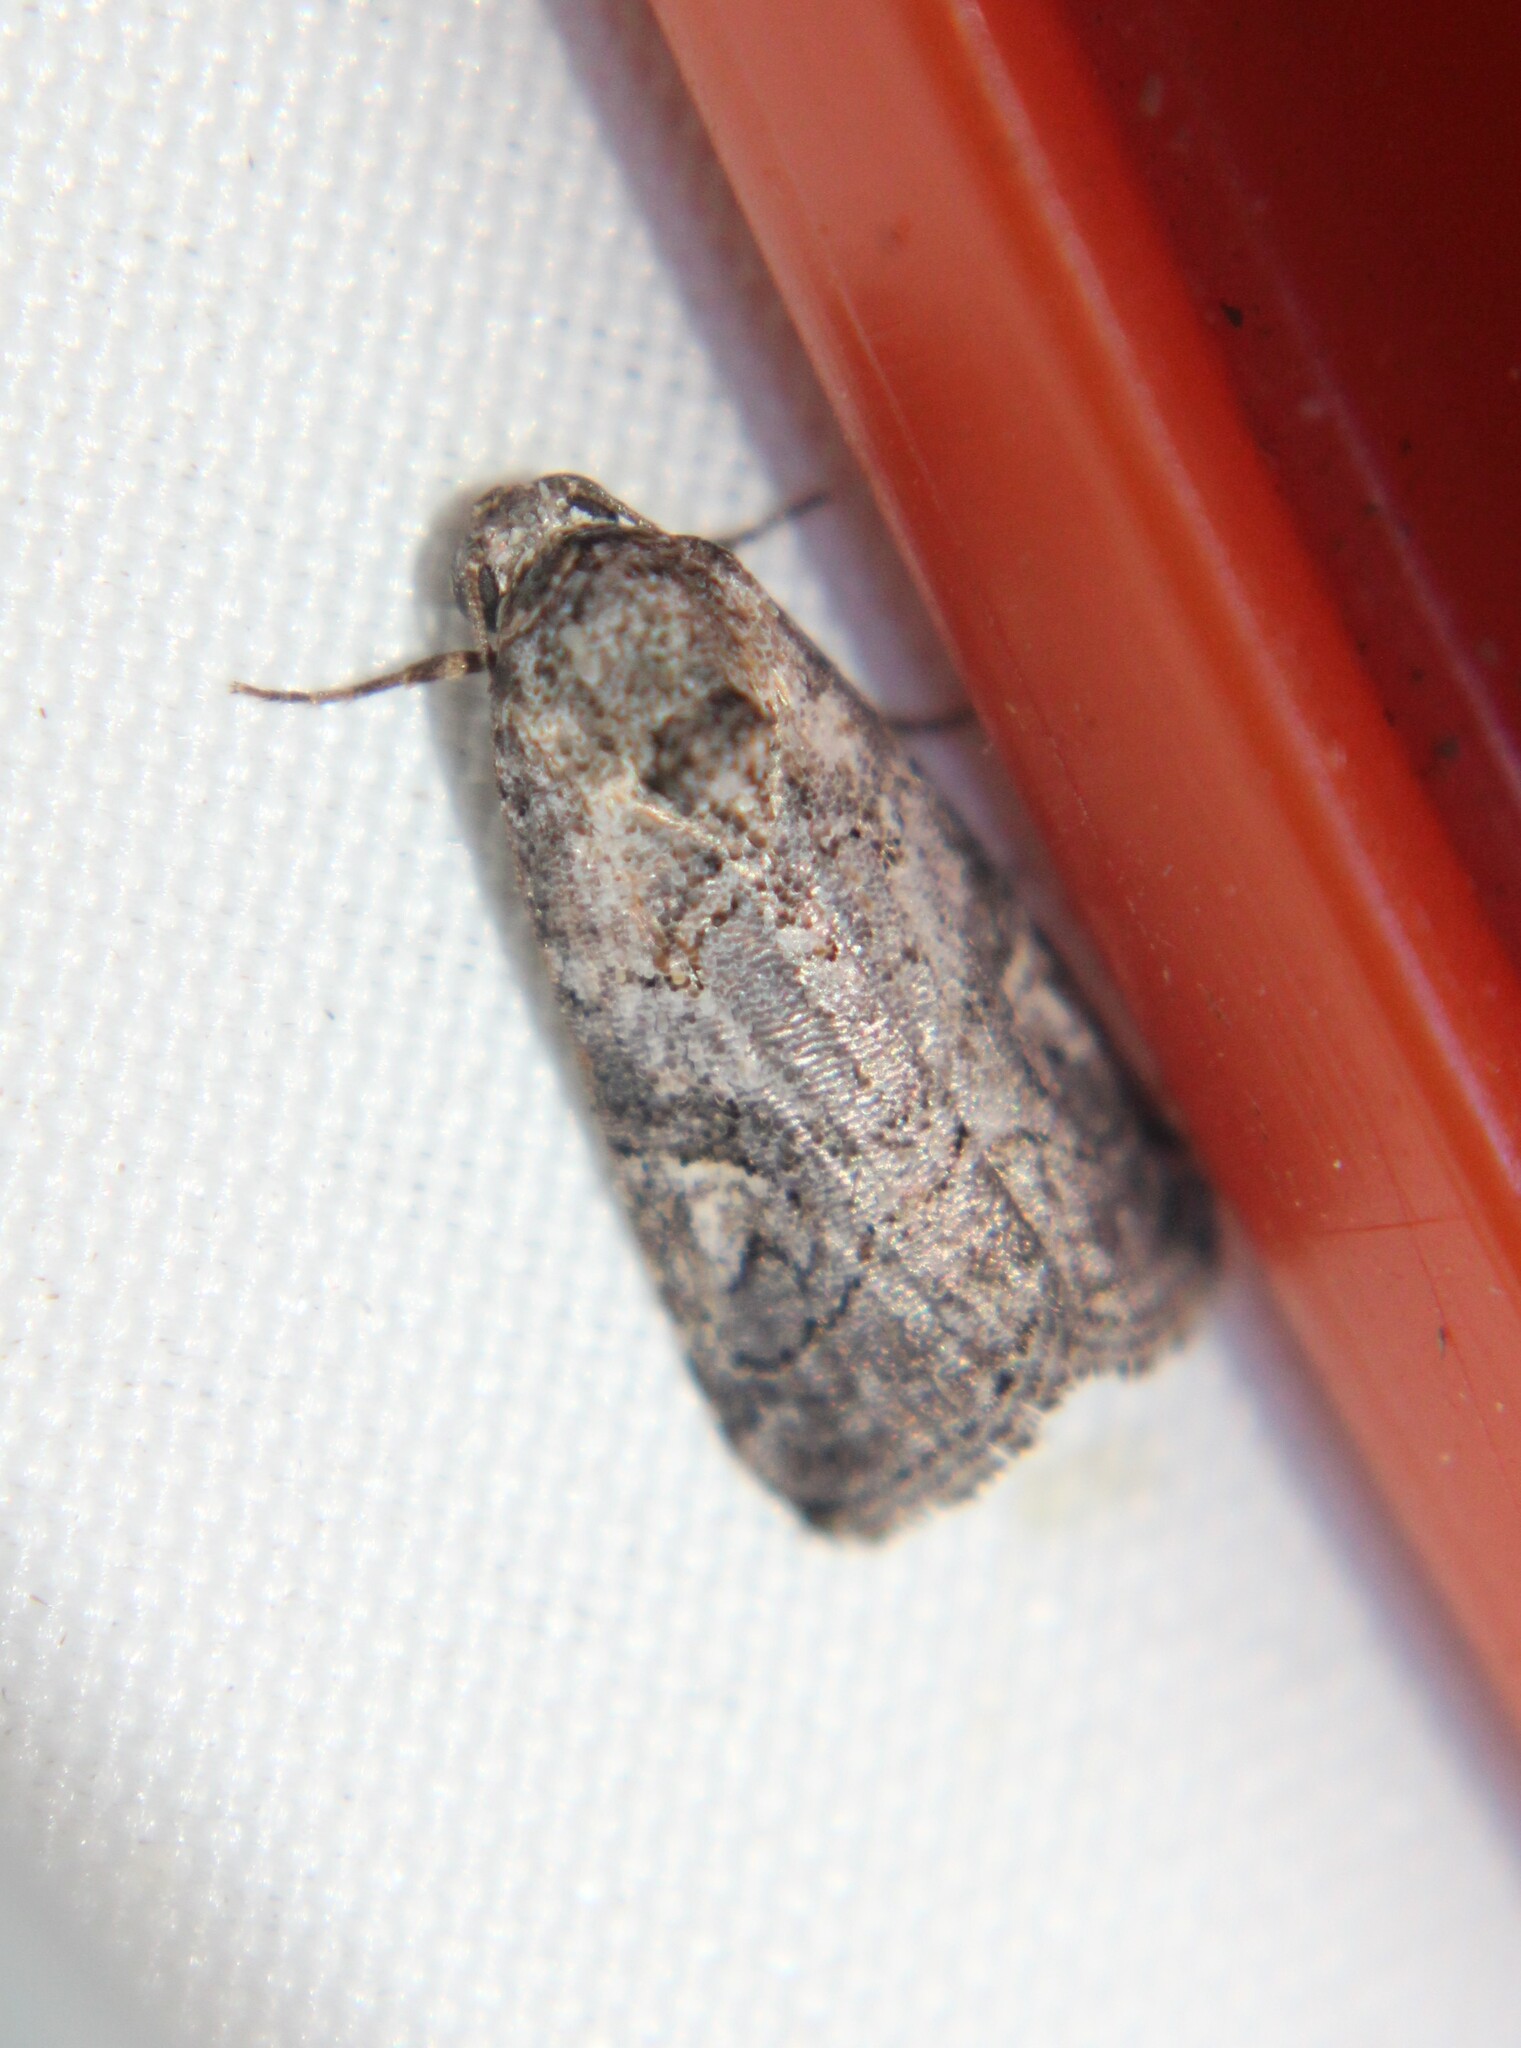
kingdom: Animalia
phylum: Arthropoda
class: Insecta
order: Lepidoptera
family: Noctuidae
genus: Metaponpneumata
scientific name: Metaponpneumata rogenhoferi
